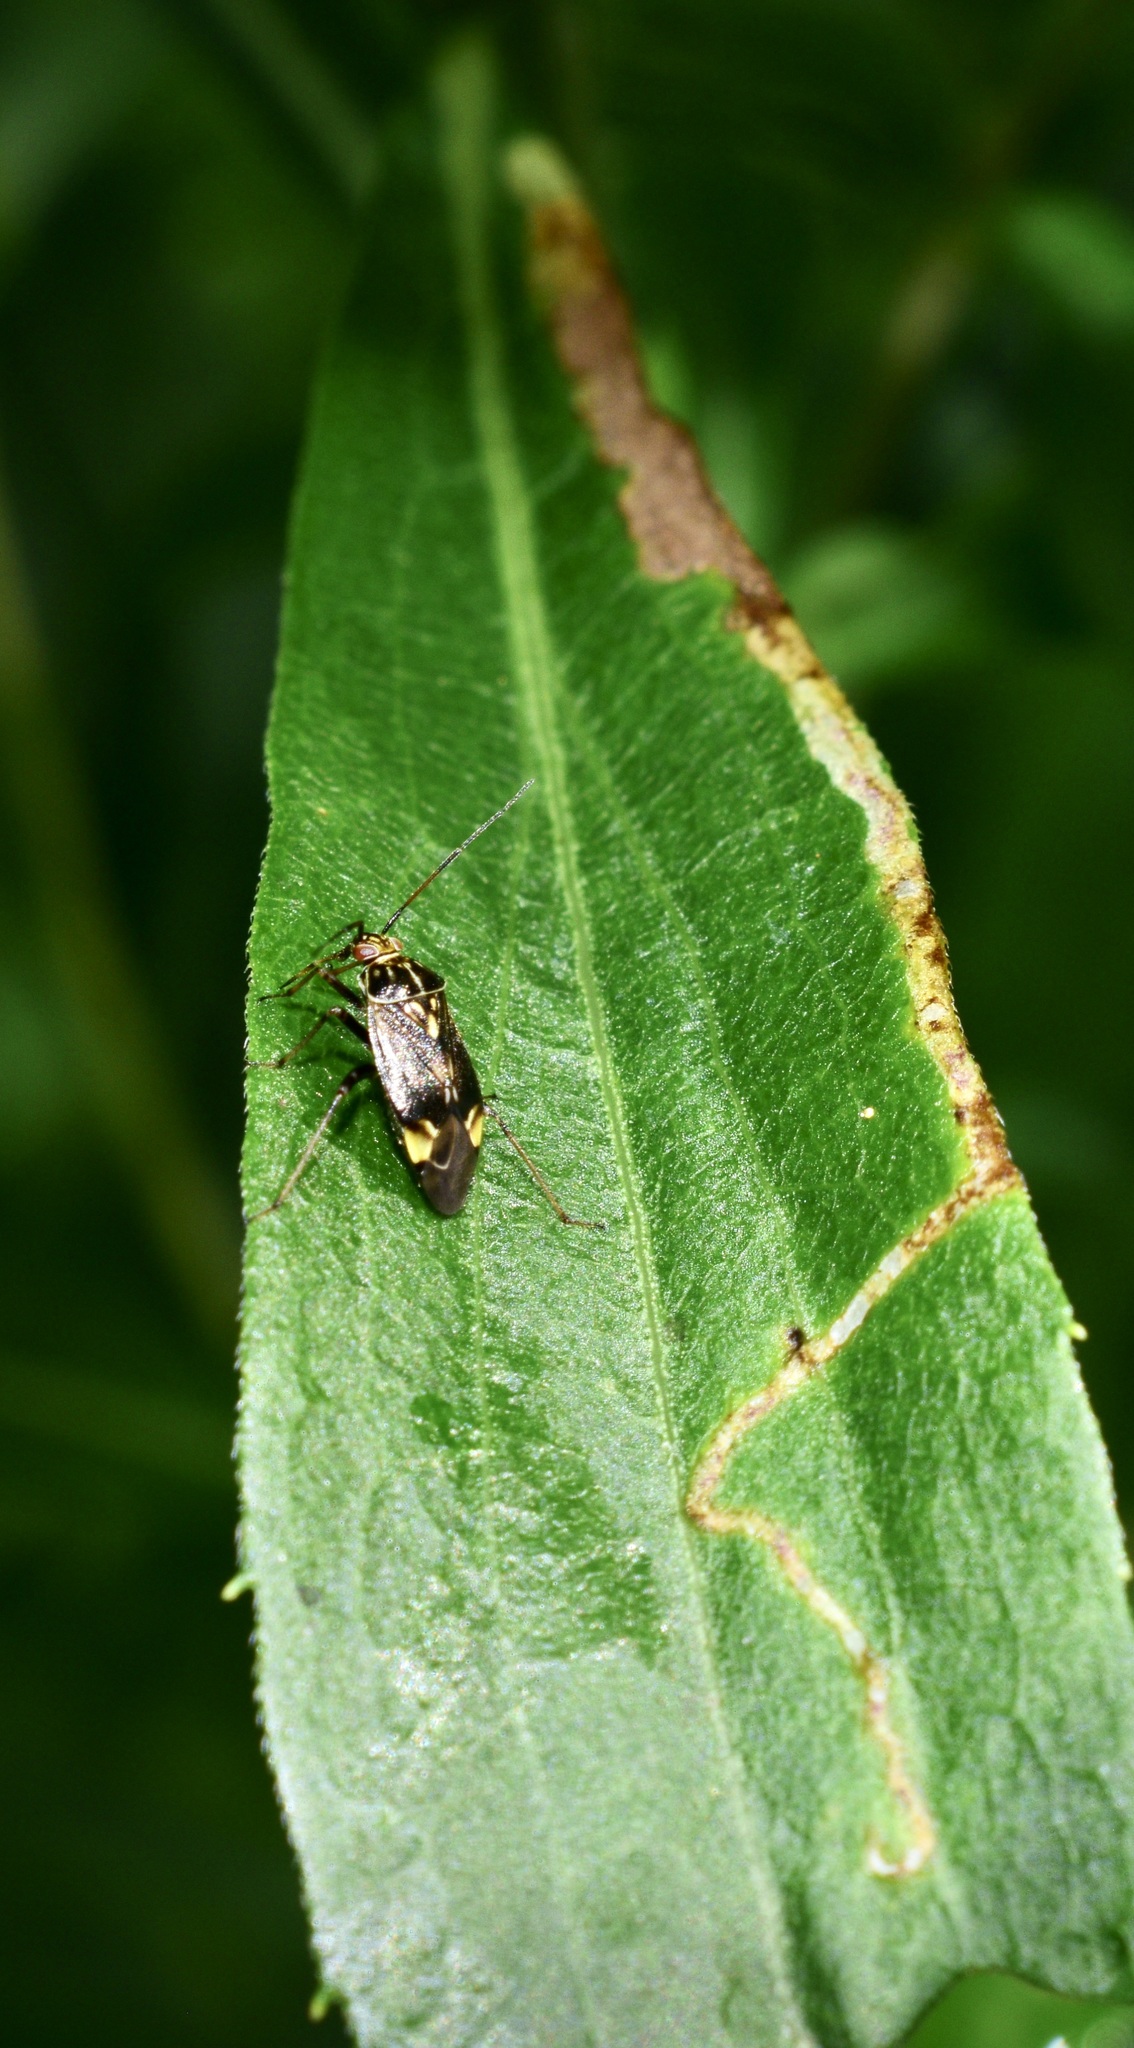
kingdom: Animalia
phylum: Arthropoda
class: Insecta
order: Hemiptera
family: Miridae
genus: Lygus
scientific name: Lygus lineolaris
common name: North american tarnished plant bug
